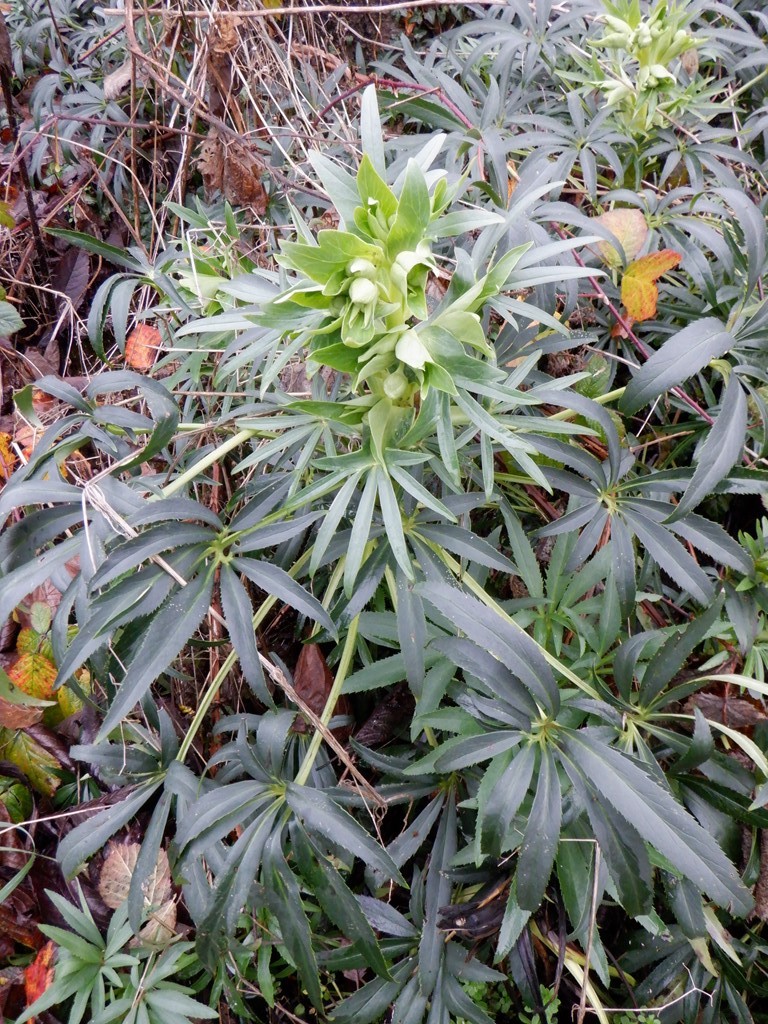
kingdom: Plantae
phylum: Tracheophyta
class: Magnoliopsida
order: Ranunculales
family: Ranunculaceae
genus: Helleborus
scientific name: Helleborus foetidus
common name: Stinking hellebore
